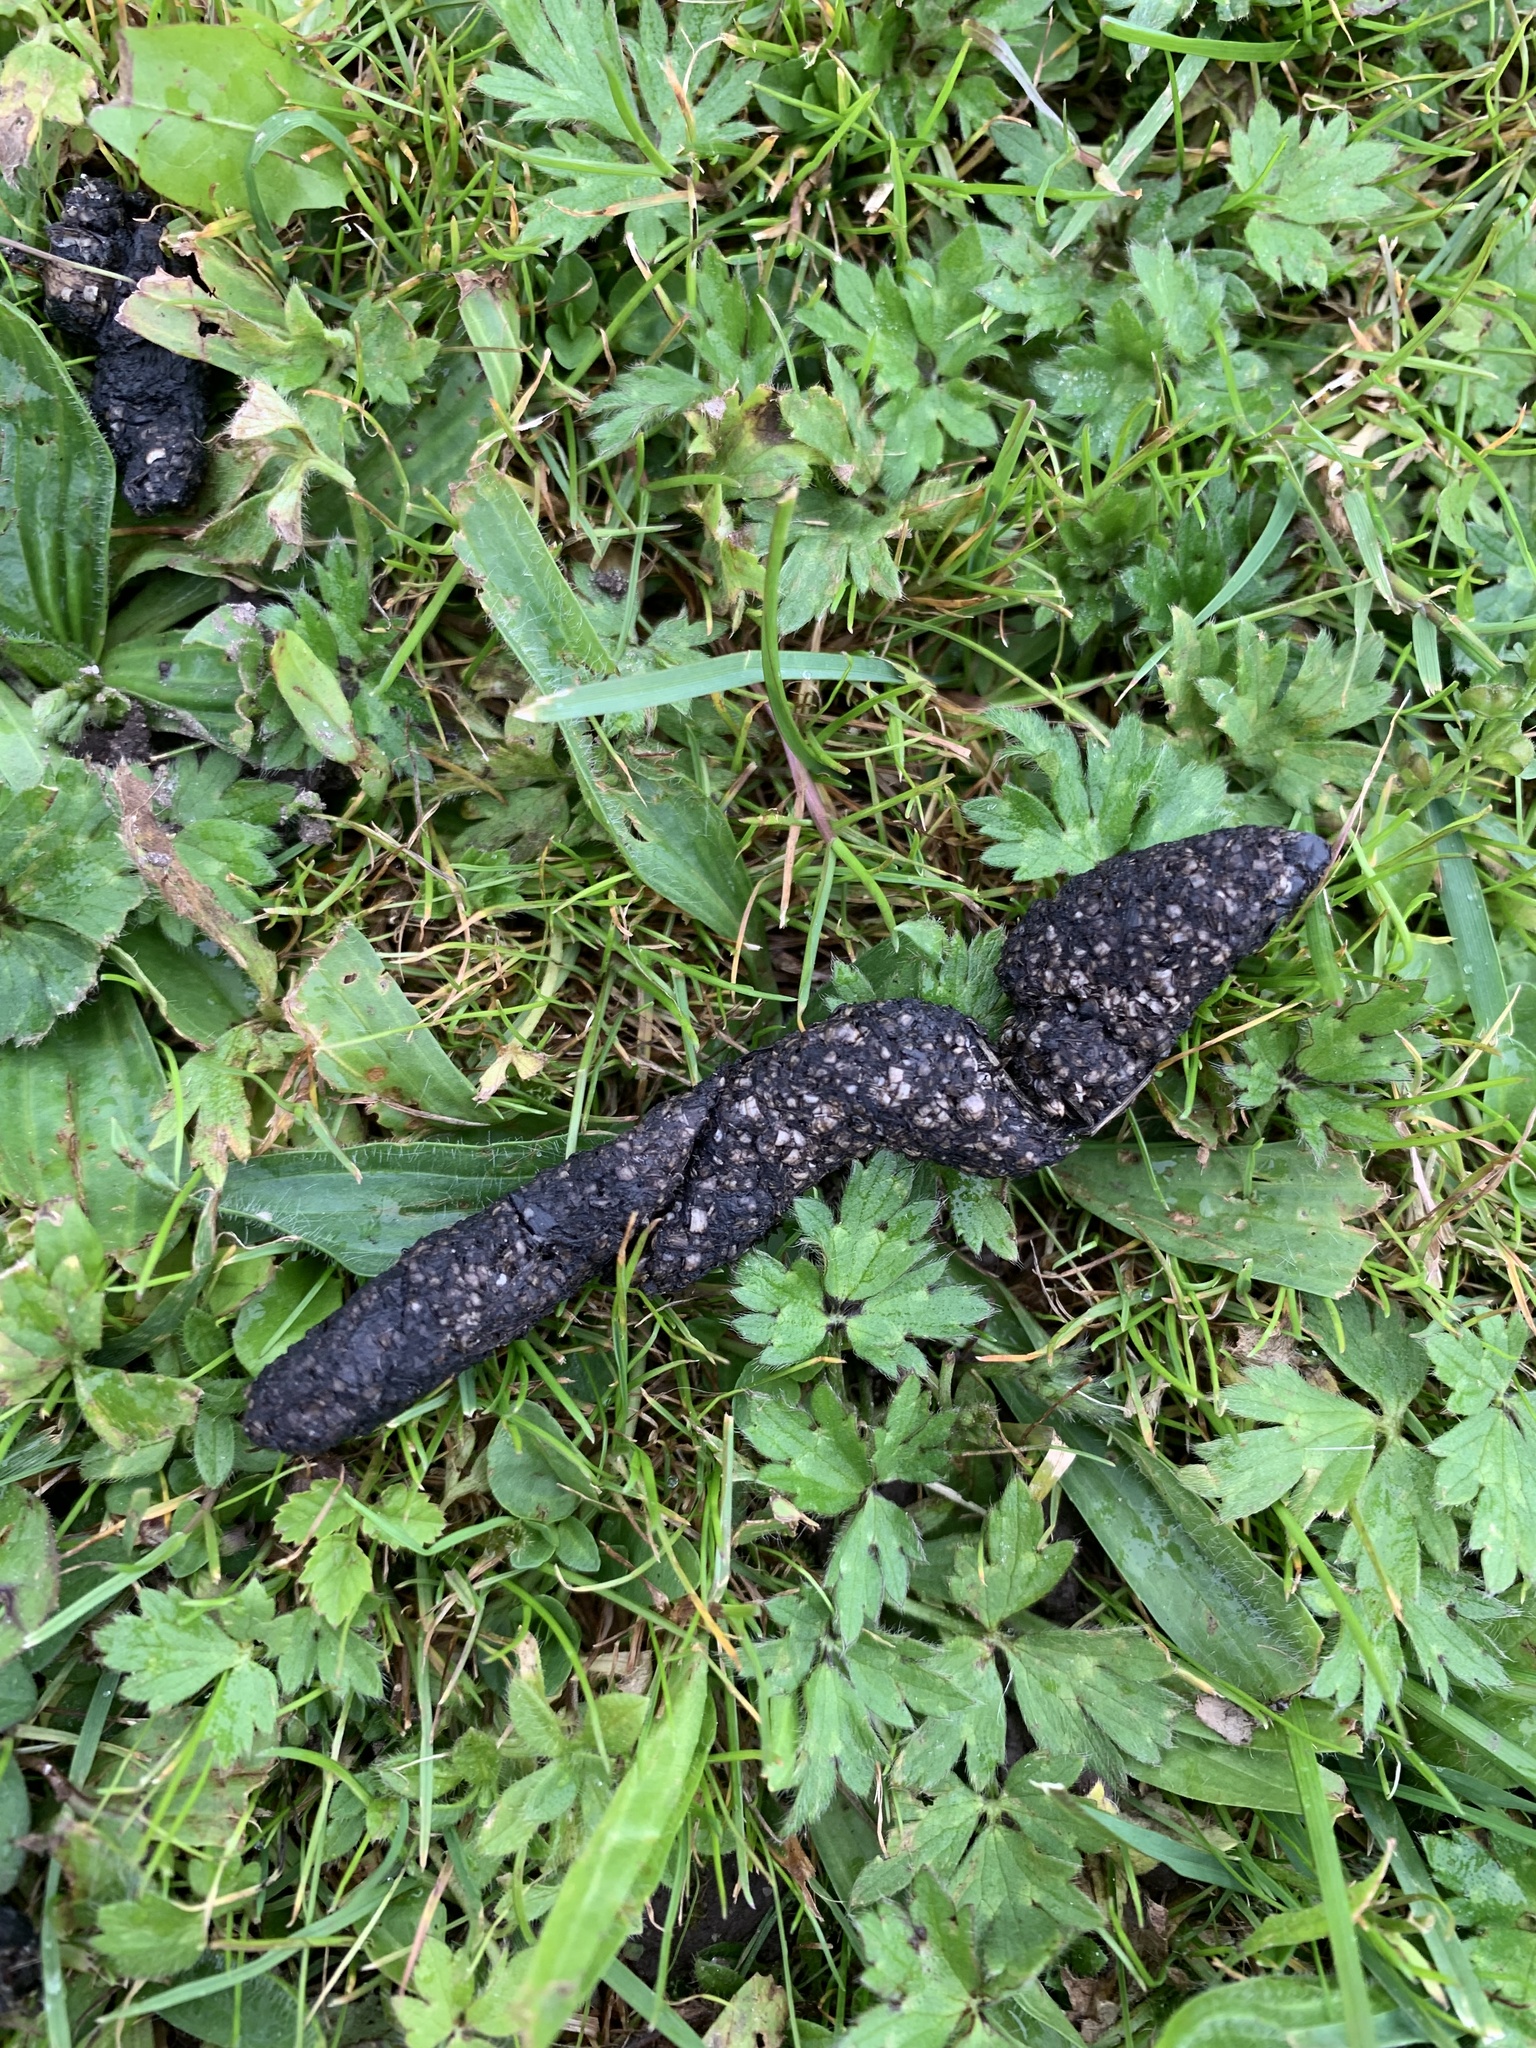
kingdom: Animalia
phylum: Chordata
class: Mammalia
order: Erinaceomorpha
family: Erinaceidae
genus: Erinaceus
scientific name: Erinaceus europaeus
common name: West european hedgehog
